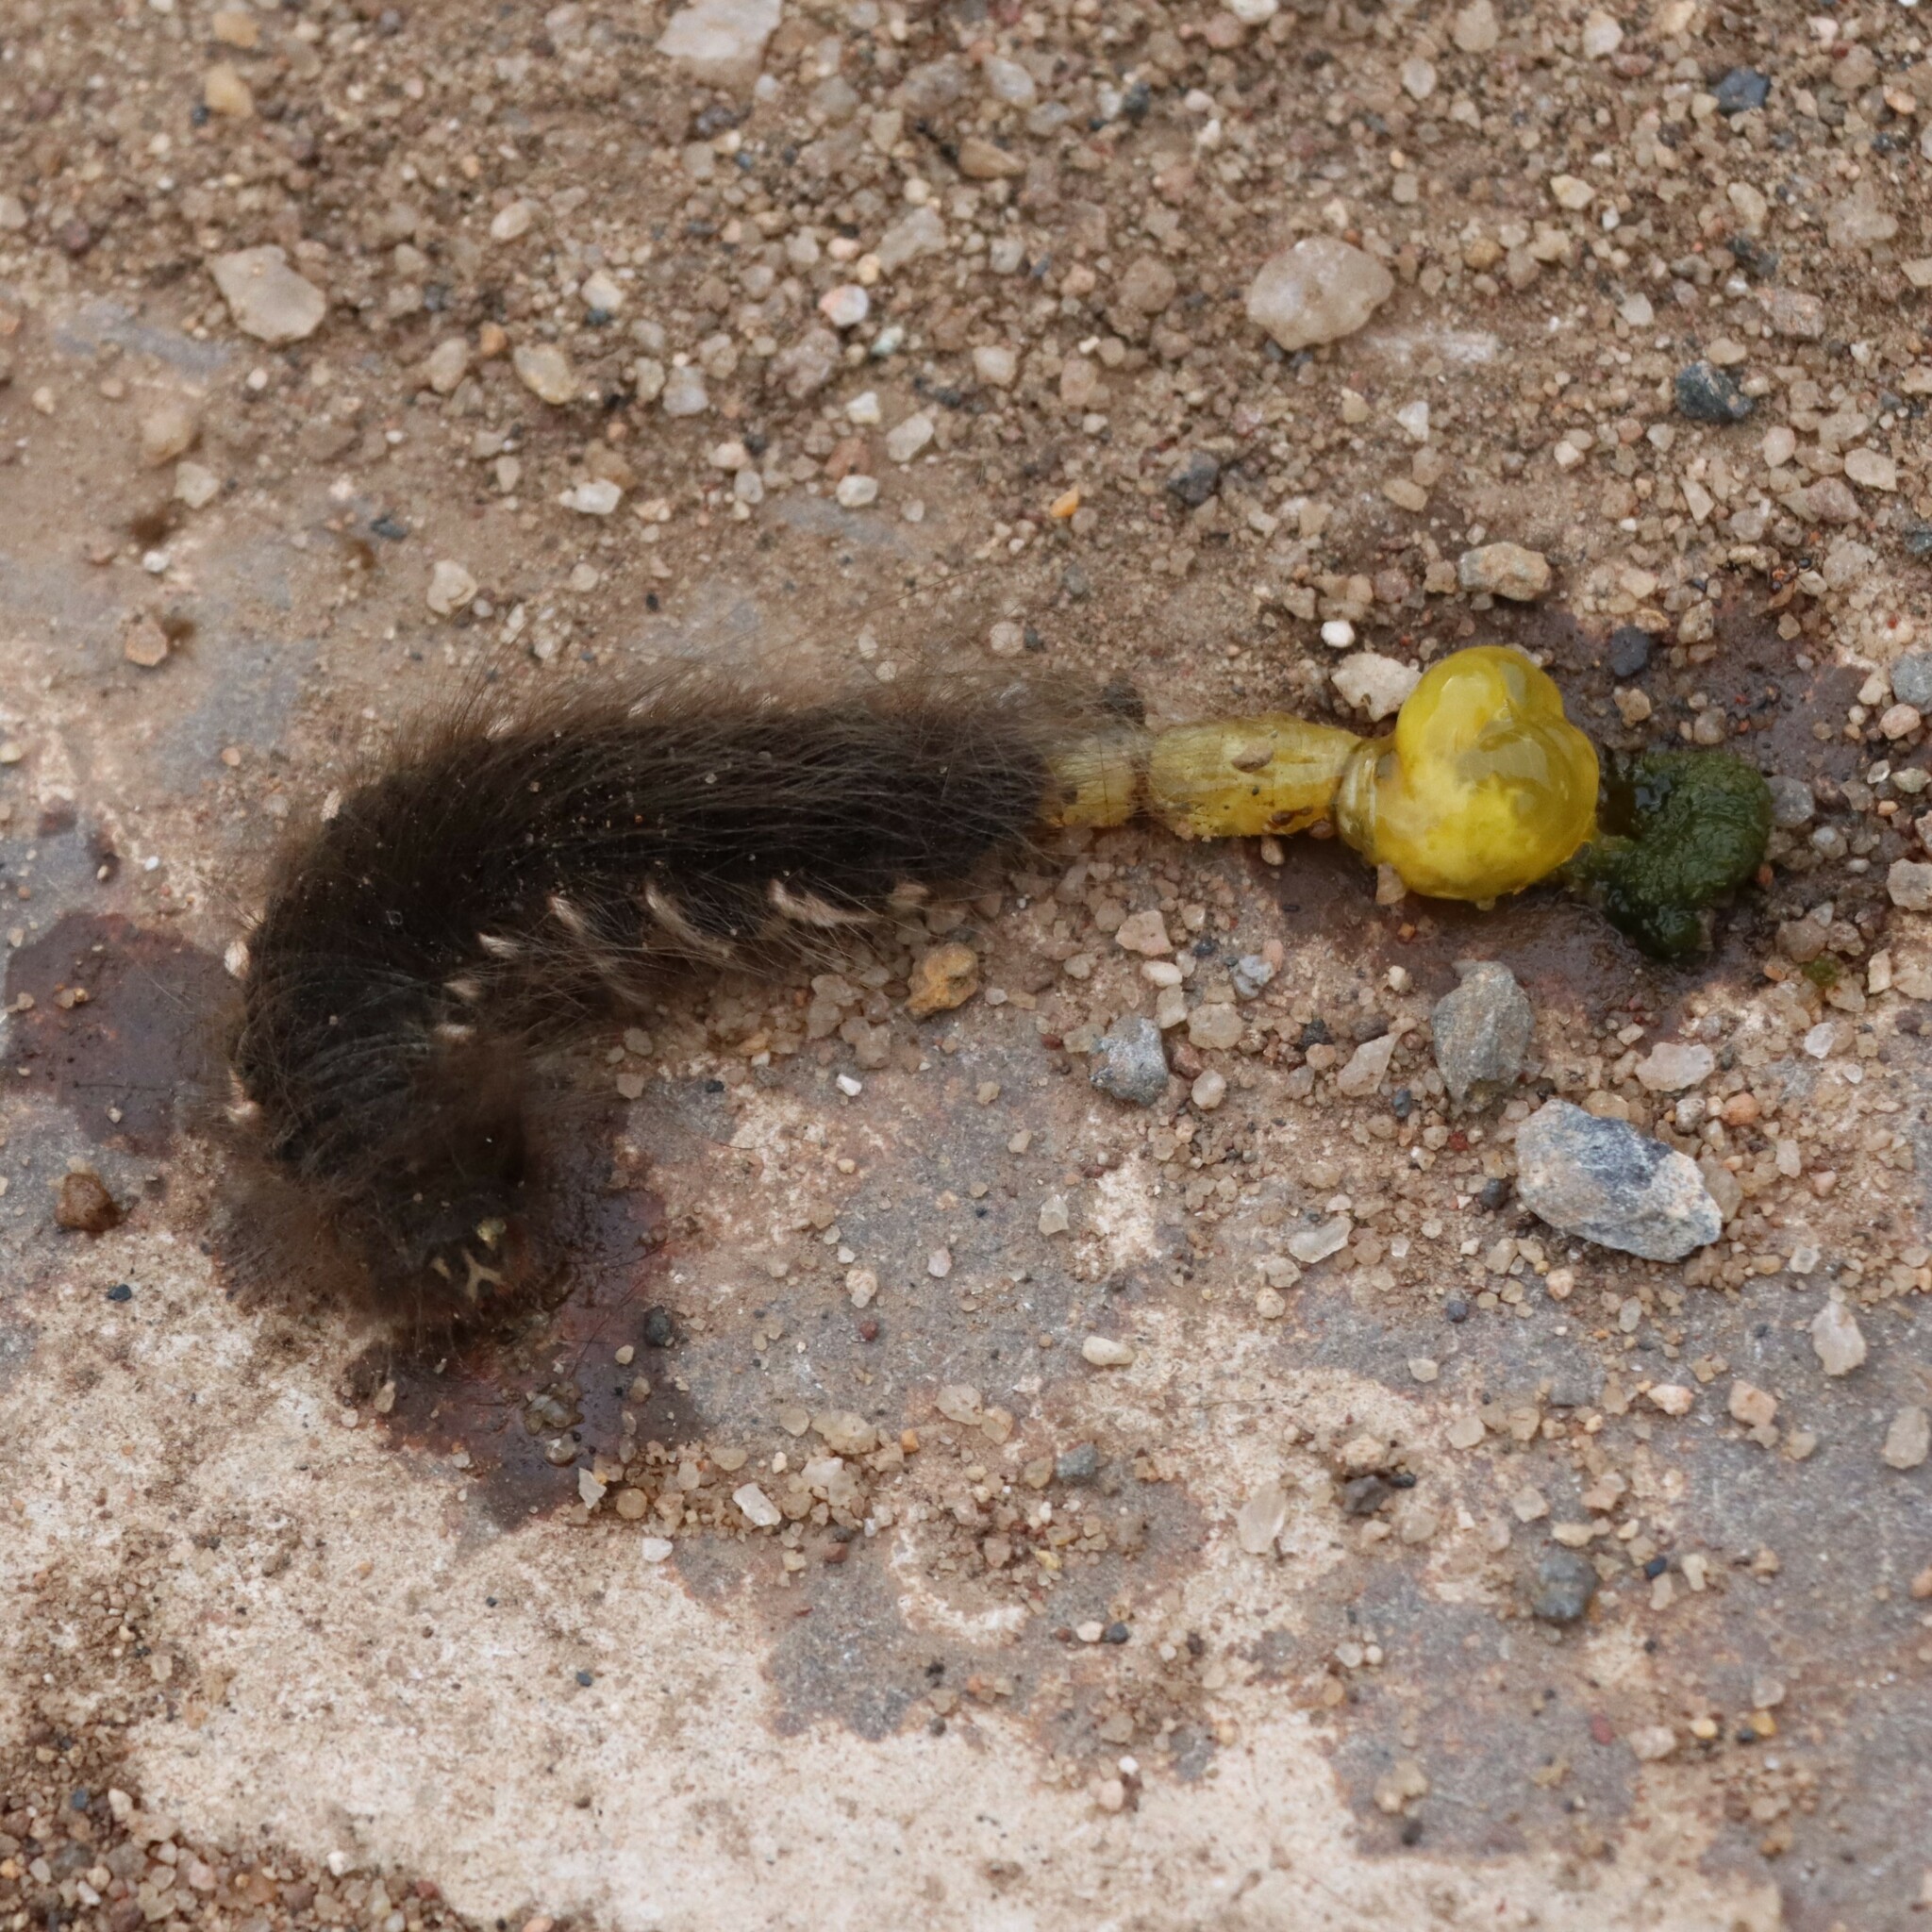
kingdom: Animalia
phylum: Arthropoda
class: Insecta
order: Lepidoptera
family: Lasiocampidae
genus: Philotherma
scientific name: Philotherma rosa
